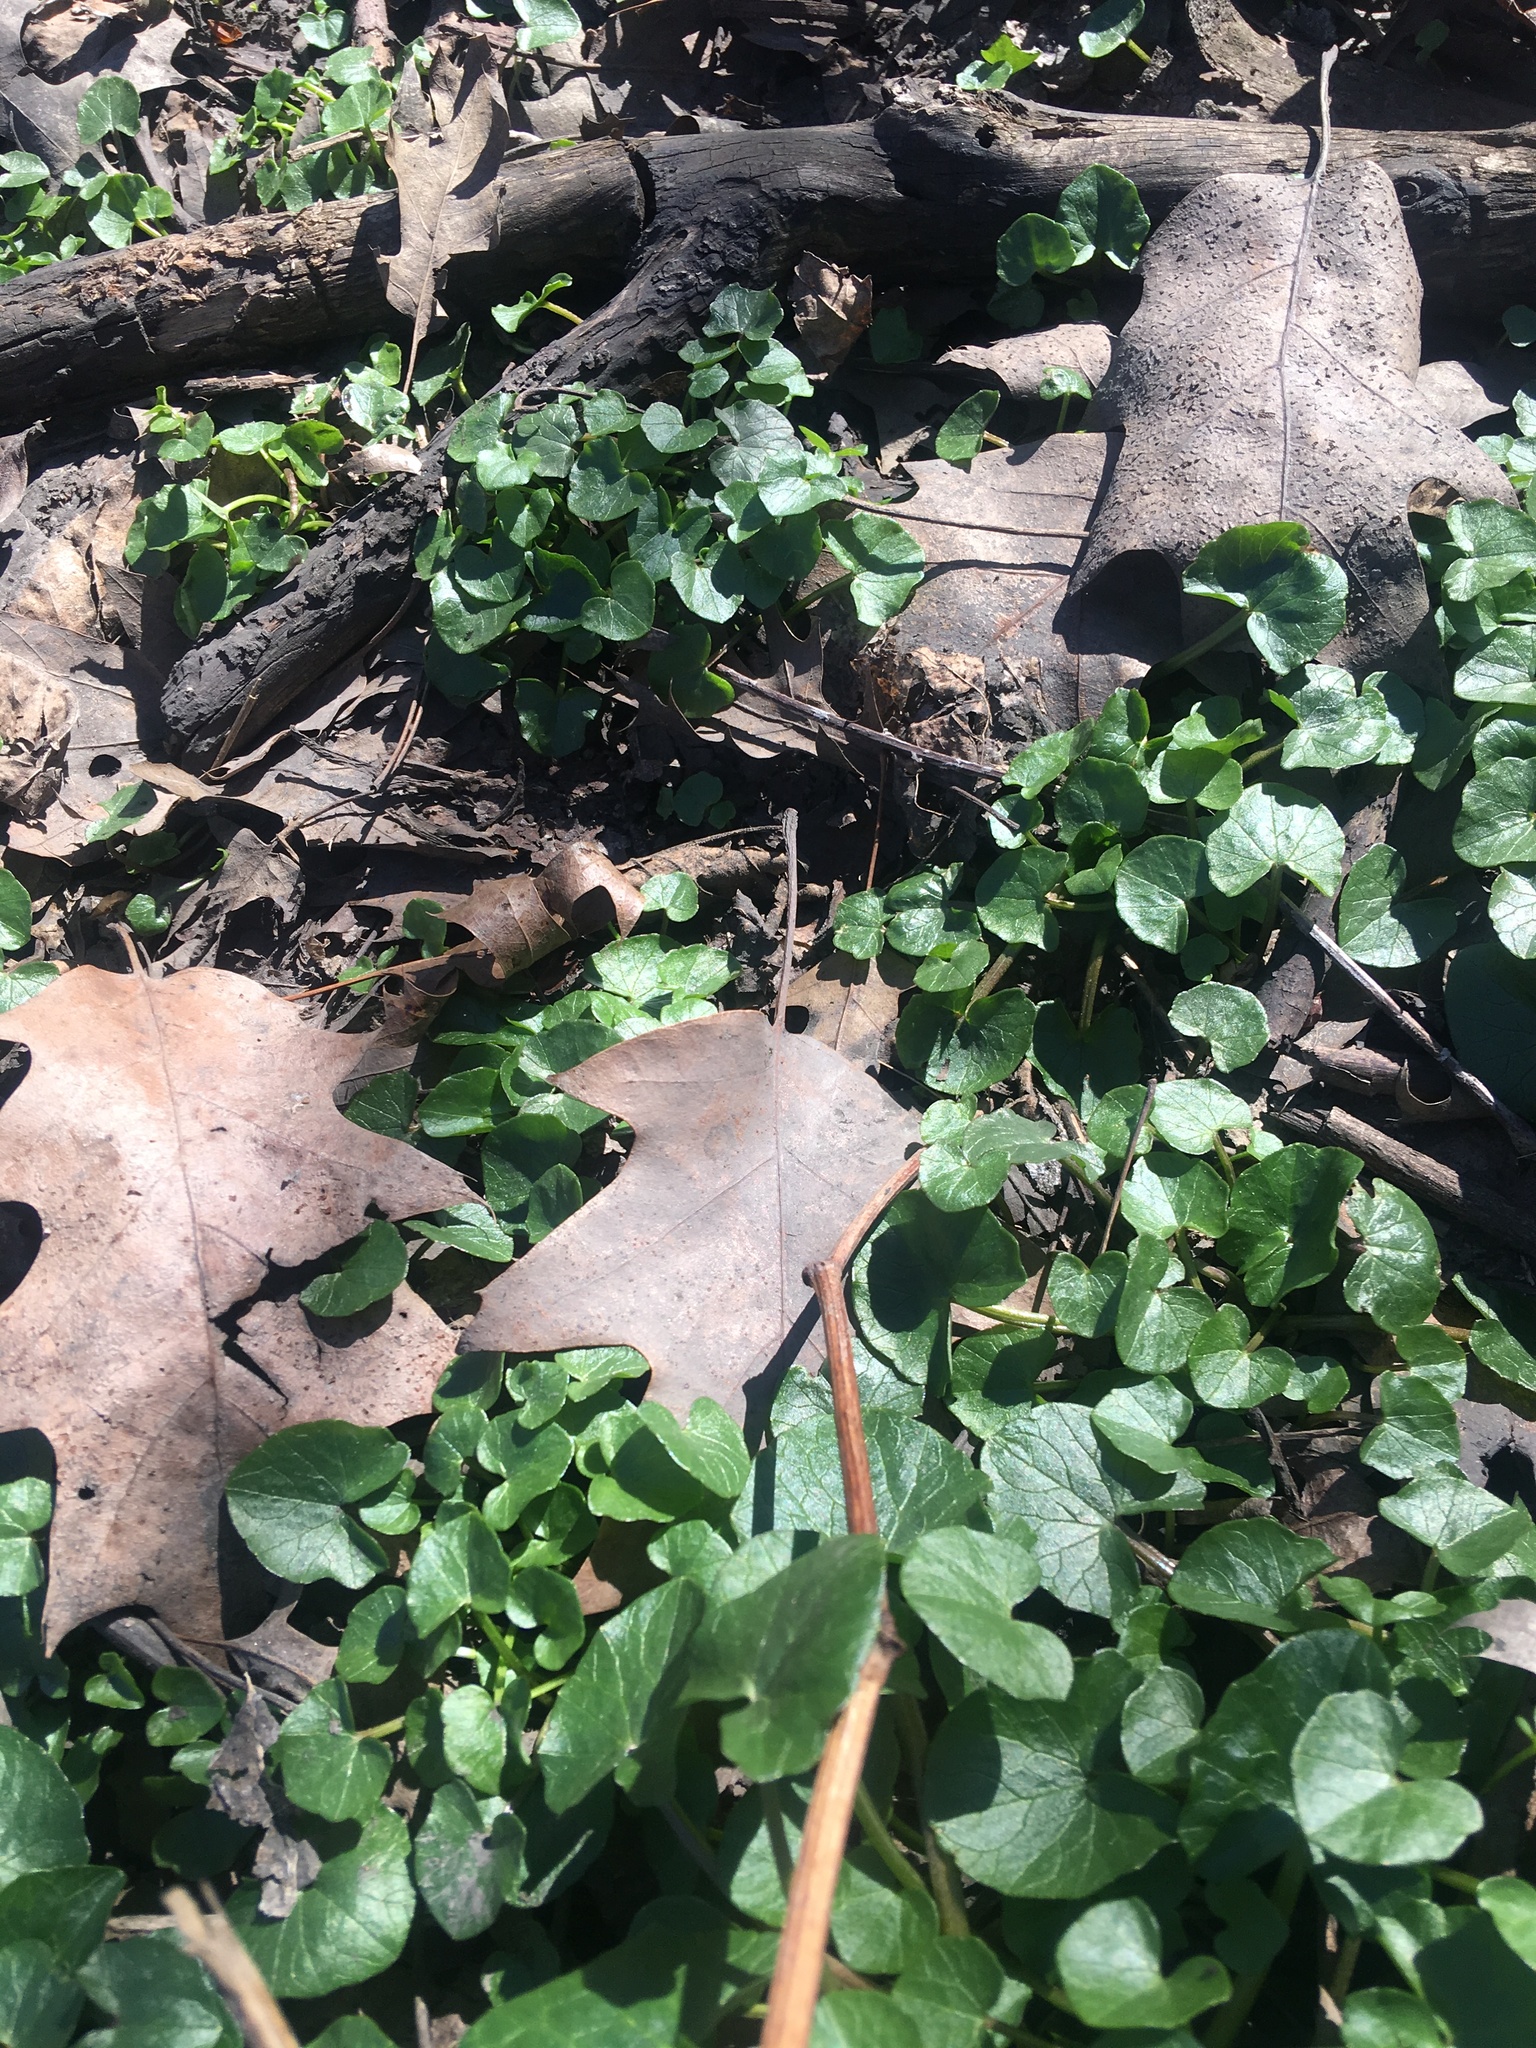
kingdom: Plantae
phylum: Tracheophyta
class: Magnoliopsida
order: Ranunculales
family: Ranunculaceae
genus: Ficaria
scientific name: Ficaria verna
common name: Lesser celandine
